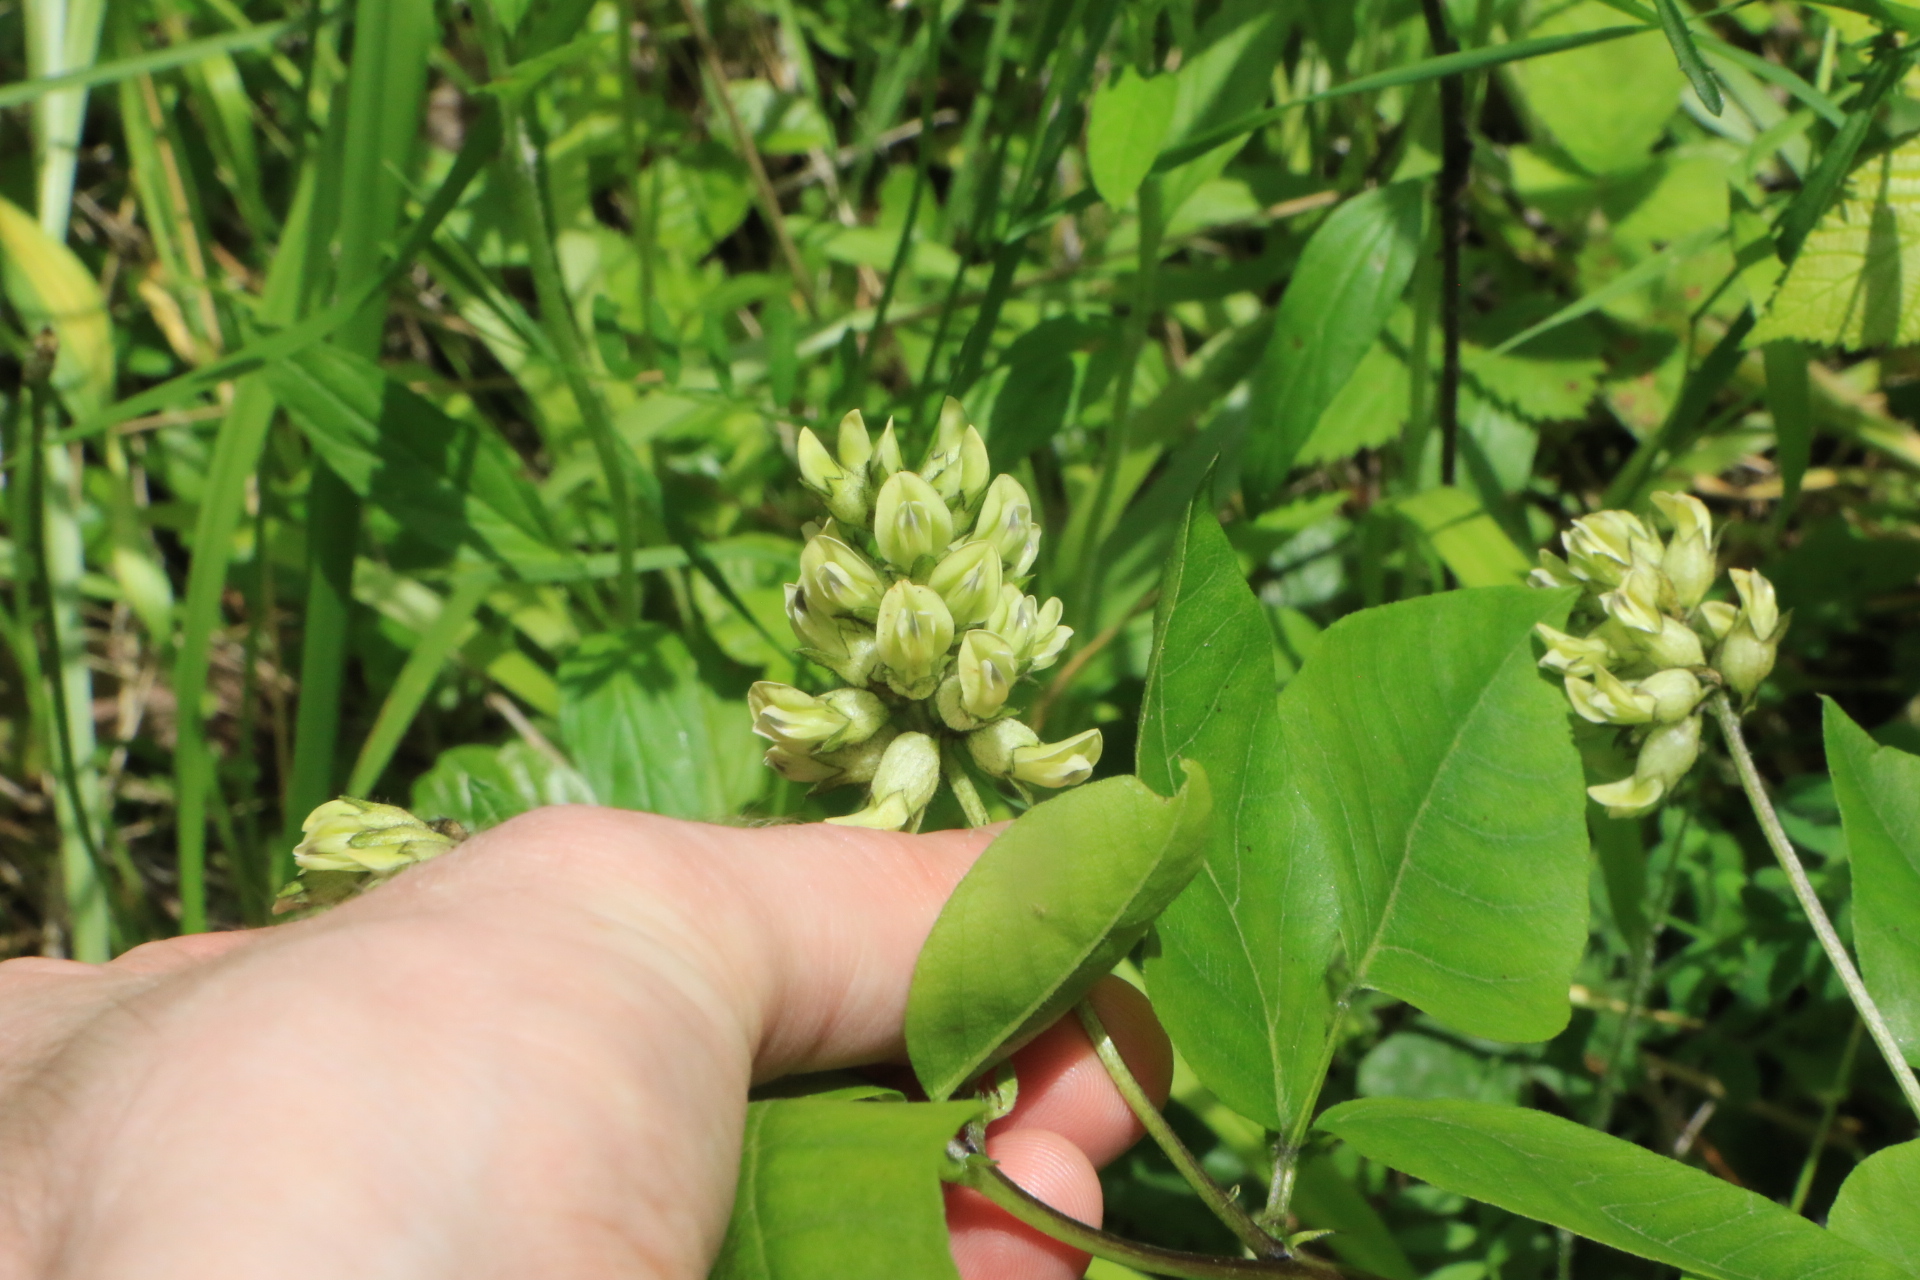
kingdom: Plantae
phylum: Tracheophyta
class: Magnoliopsida
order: Fabales
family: Fabaceae
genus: Rupertia
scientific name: Rupertia physodes
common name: California-tea
